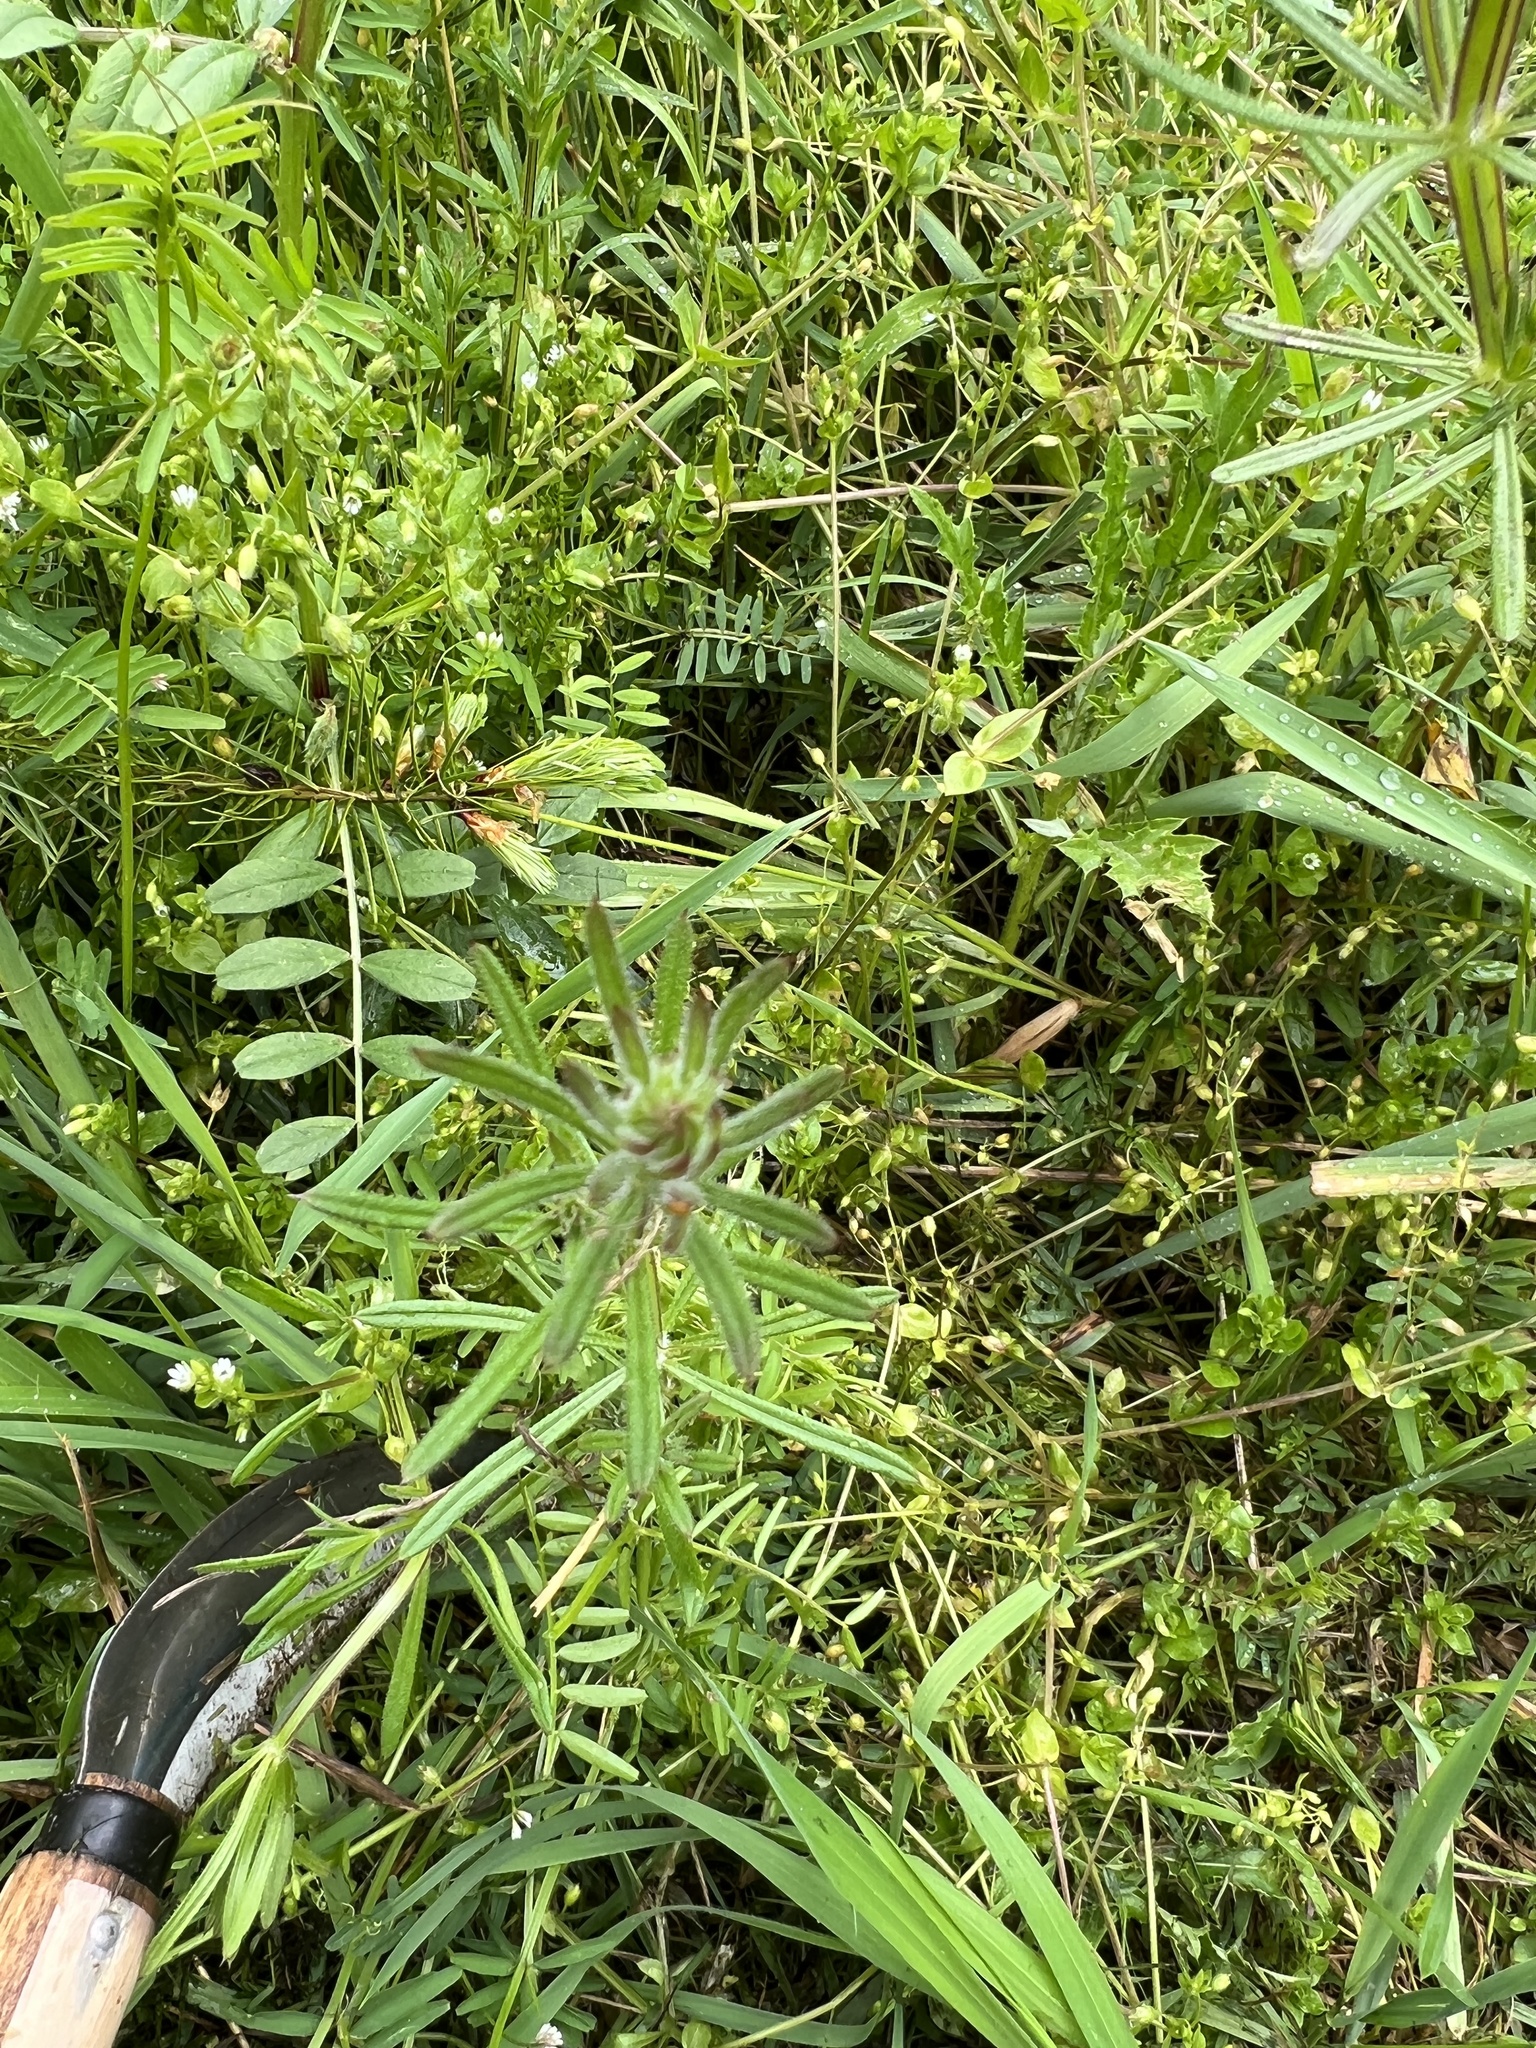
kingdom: Plantae
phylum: Tracheophyta
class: Magnoliopsida
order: Gentianales
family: Rubiaceae
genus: Galium
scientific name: Galium aparine
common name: Cleavers
